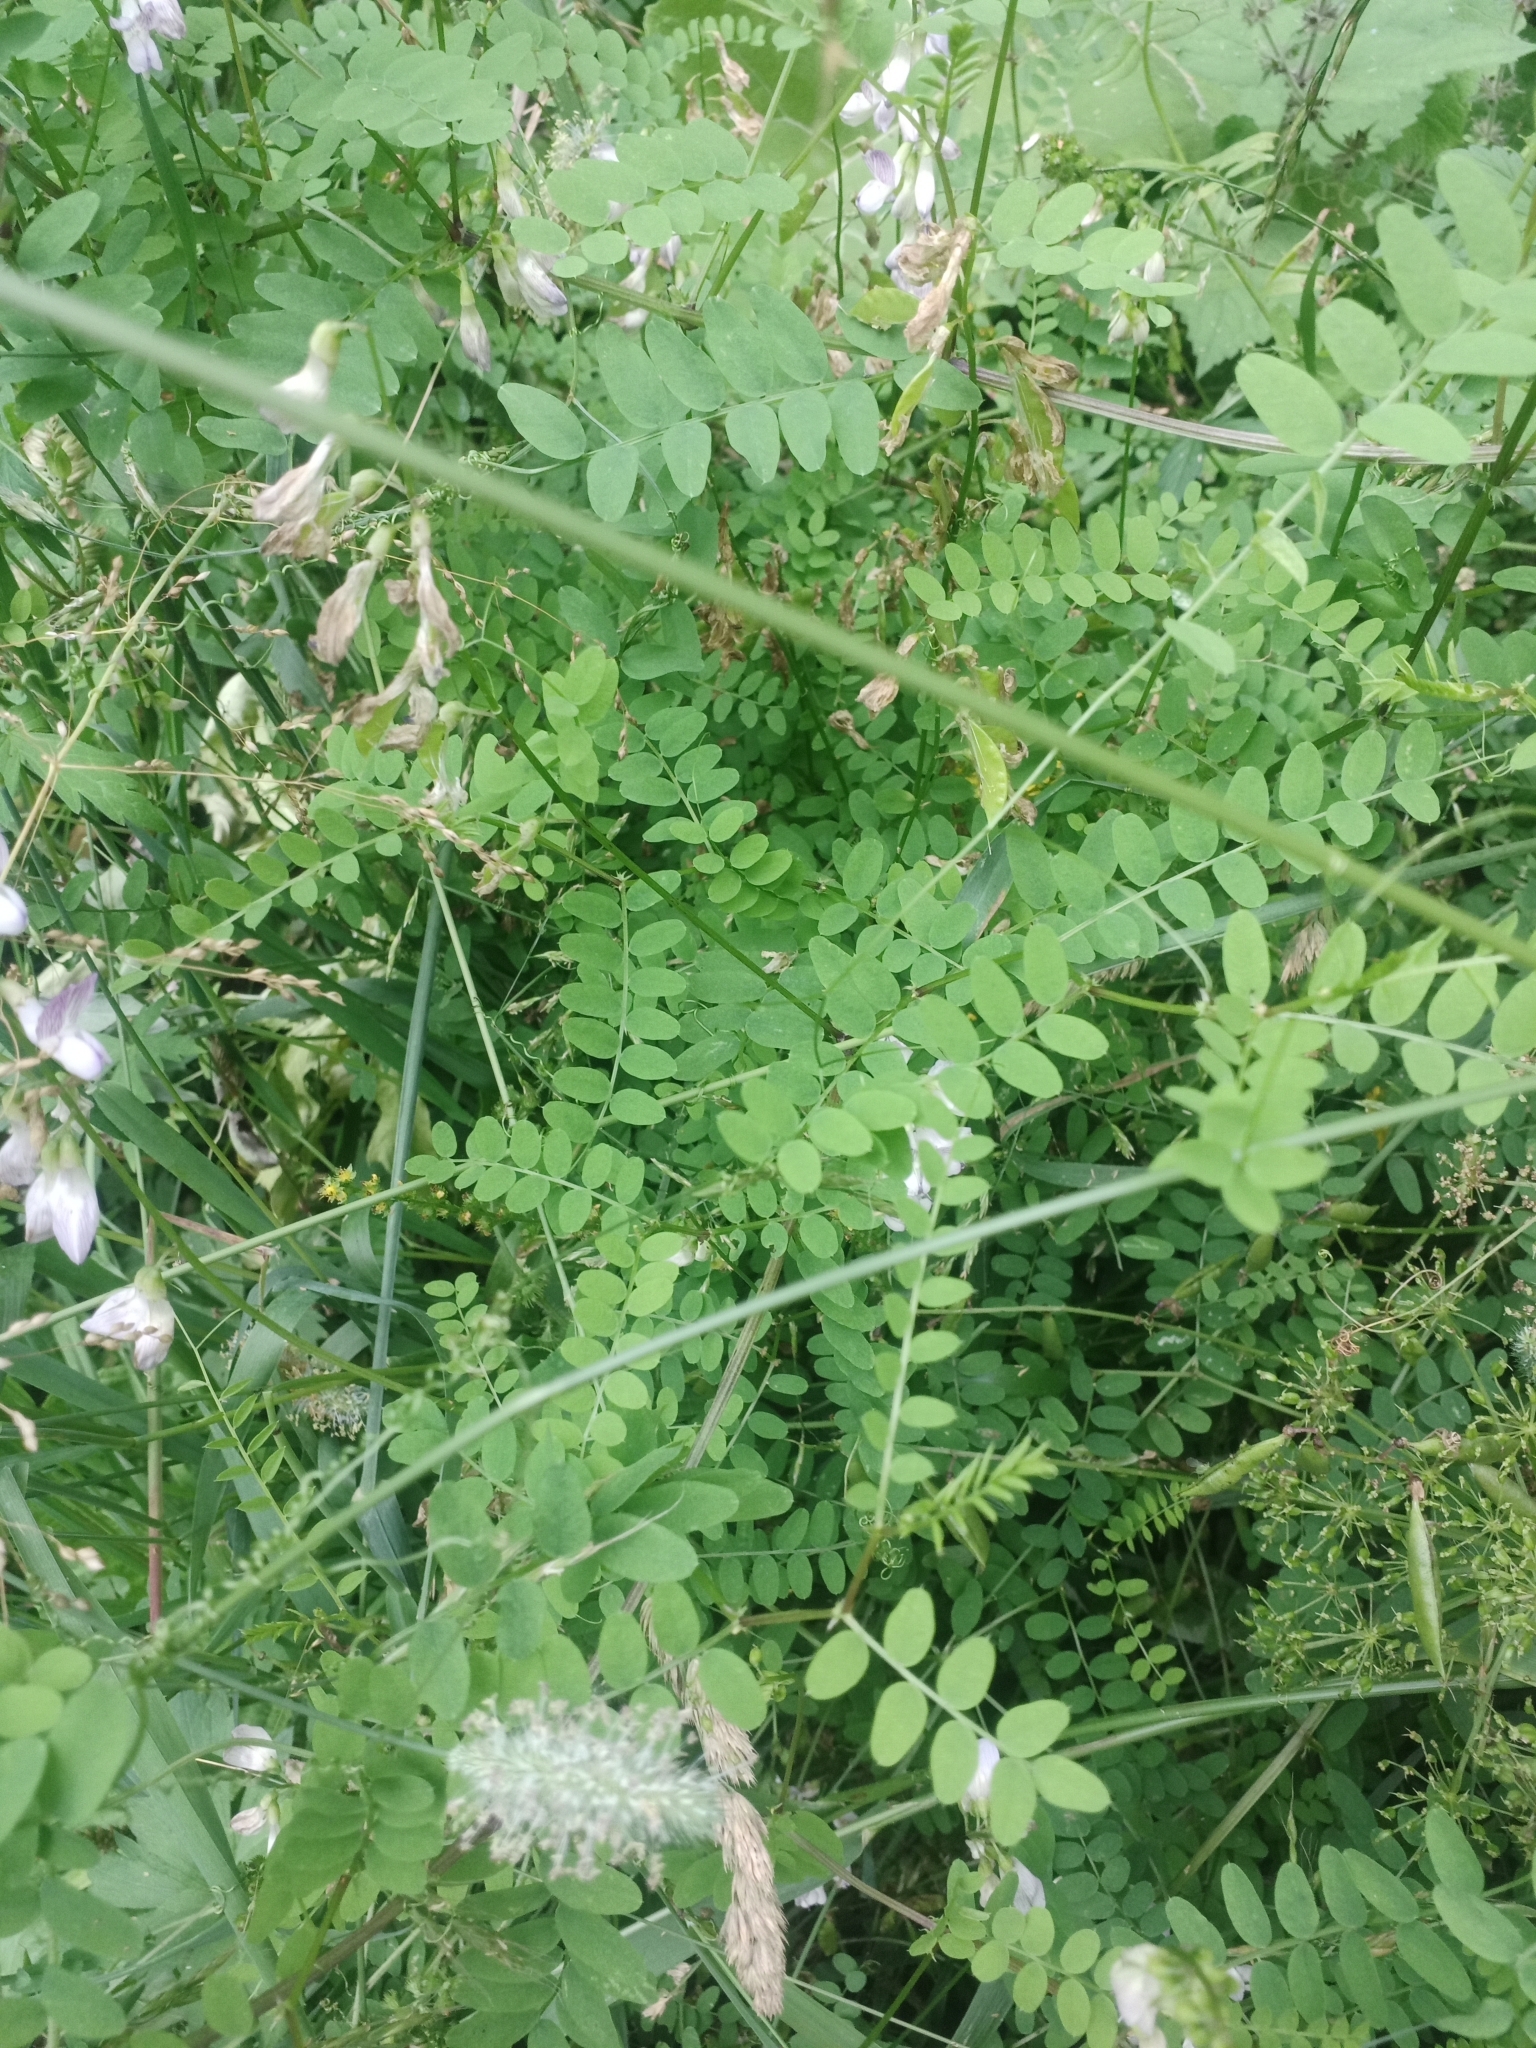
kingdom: Plantae
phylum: Tracheophyta
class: Magnoliopsida
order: Fabales
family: Fabaceae
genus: Vicia
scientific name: Vicia sylvatica
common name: Wood vetch
